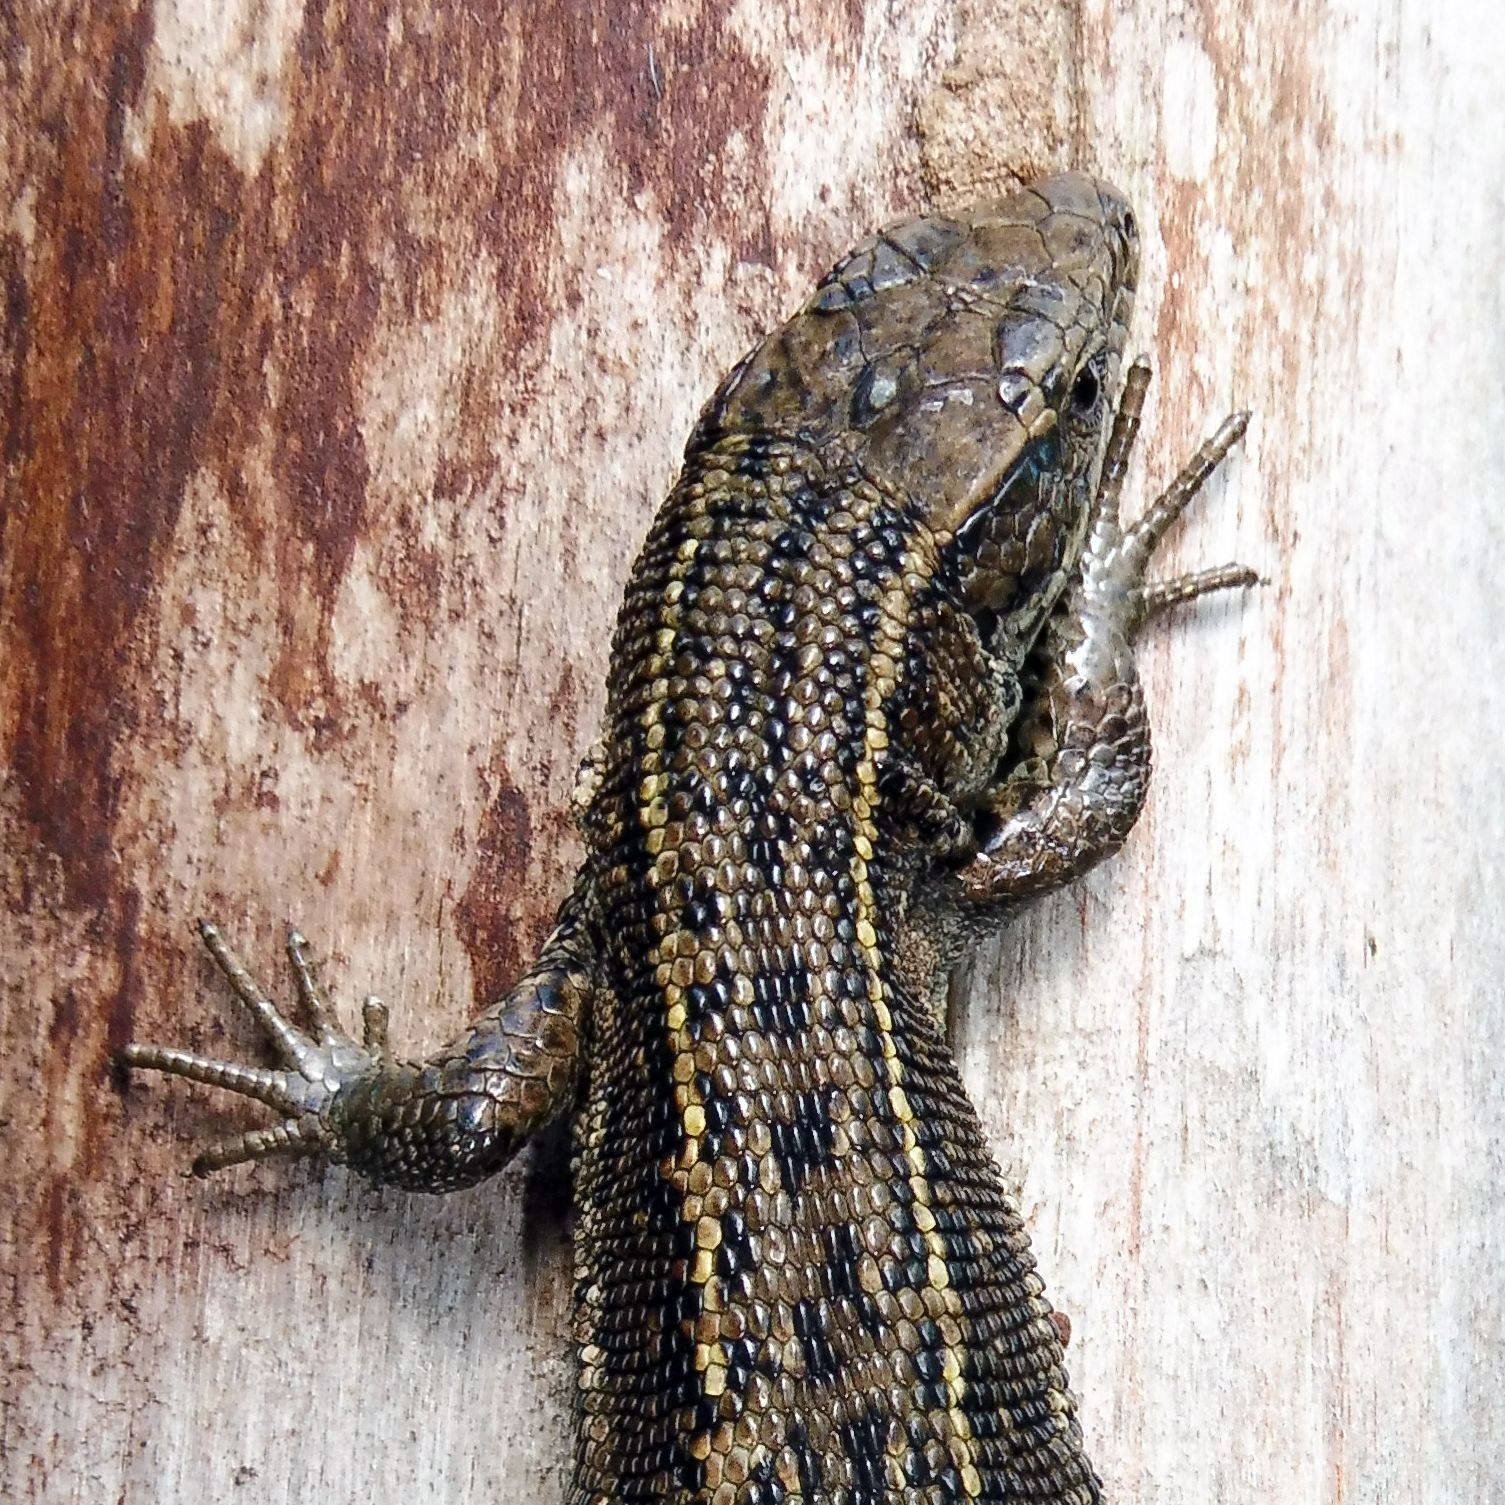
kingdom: Animalia
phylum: Chordata
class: Squamata
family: Lacertidae
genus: Zootoca
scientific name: Zootoca vivipara
